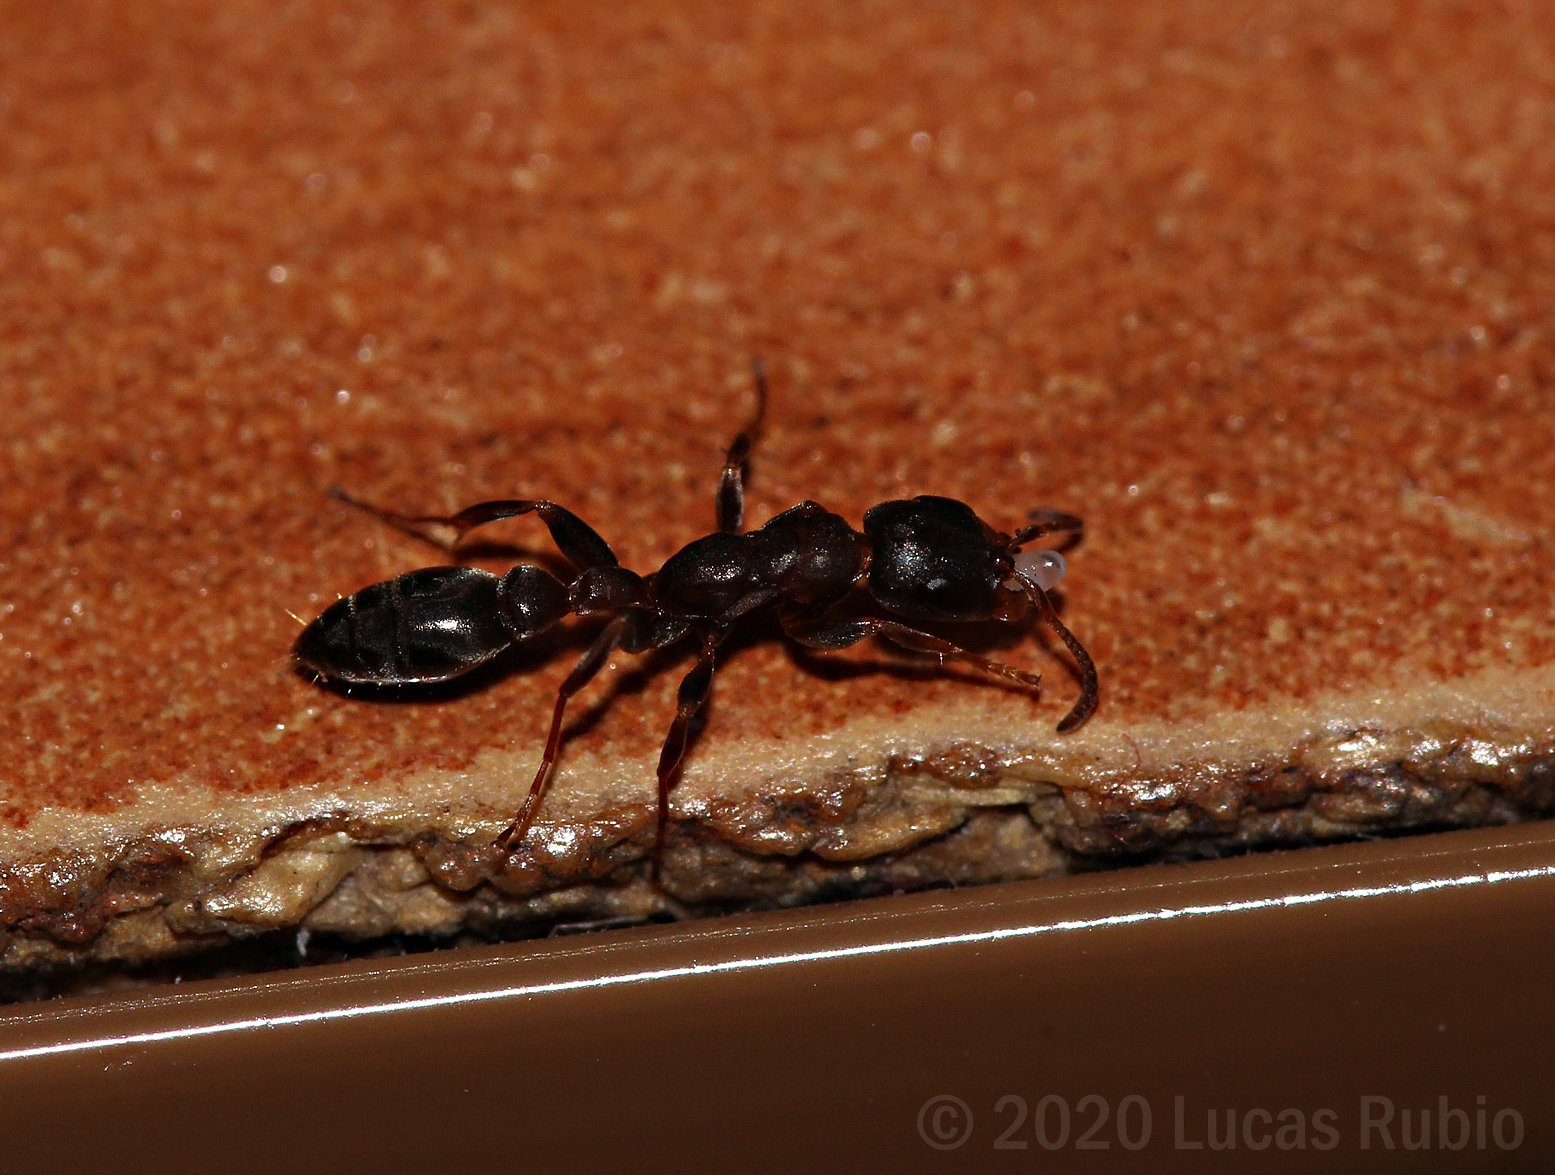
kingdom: Animalia
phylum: Arthropoda
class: Insecta
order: Hymenoptera
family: Formicidae
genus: Pseudomyrmex
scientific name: Pseudomyrmex phyllophilus
